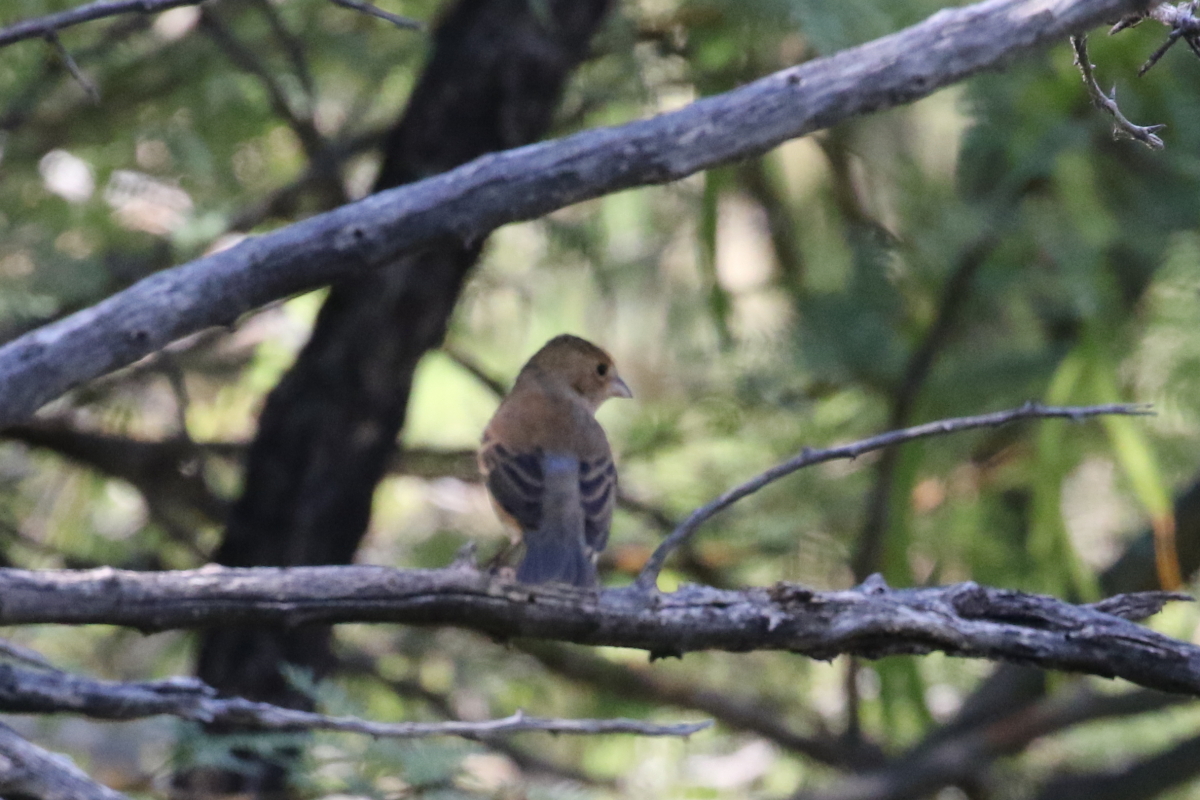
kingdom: Animalia
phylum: Chordata
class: Aves
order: Passeriformes
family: Cardinalidae
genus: Passerina
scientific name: Passerina caerulea
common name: Blue grosbeak
